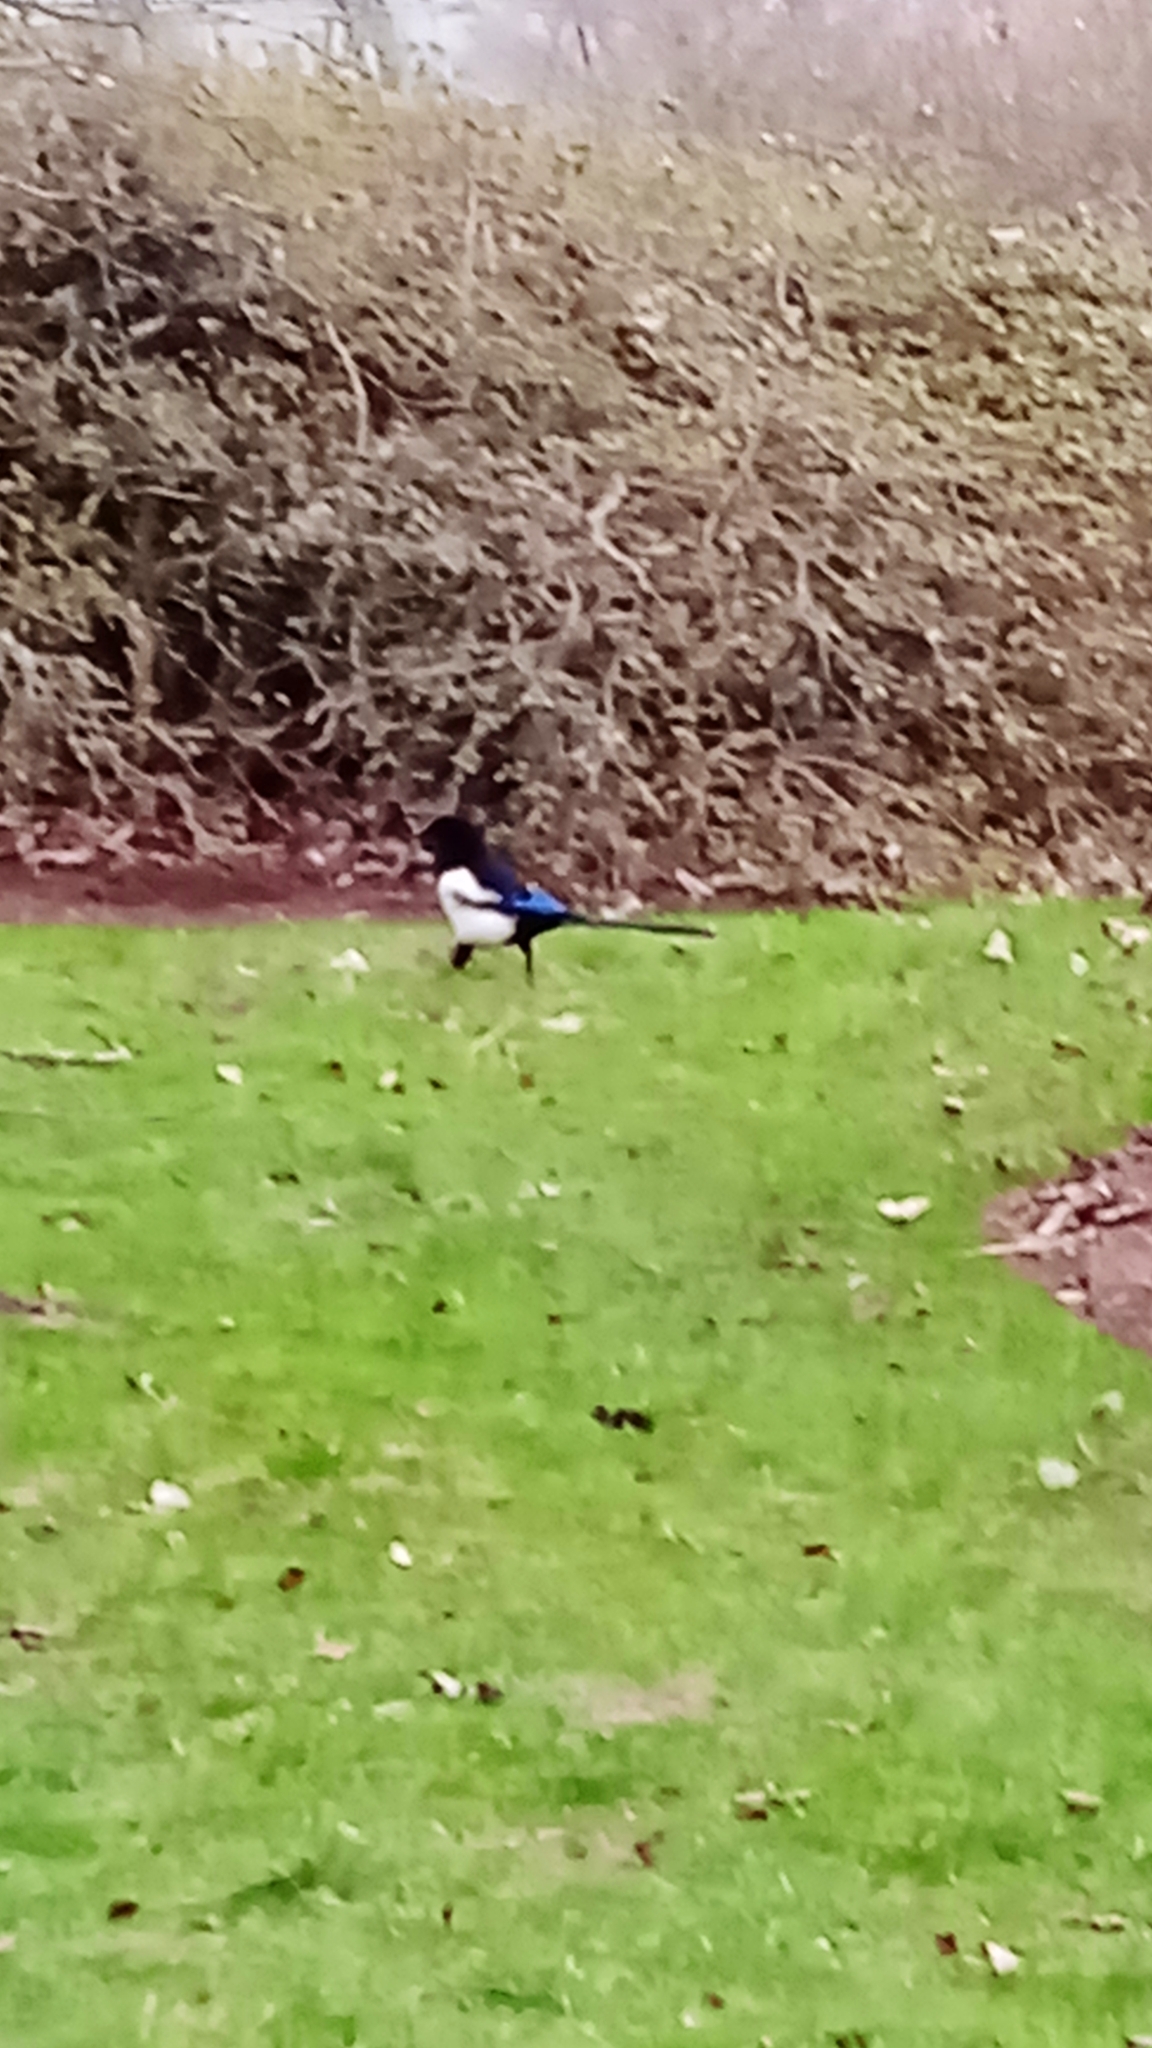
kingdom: Animalia
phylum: Chordata
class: Aves
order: Passeriformes
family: Corvidae
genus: Pica
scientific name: Pica pica
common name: Eurasian magpie
